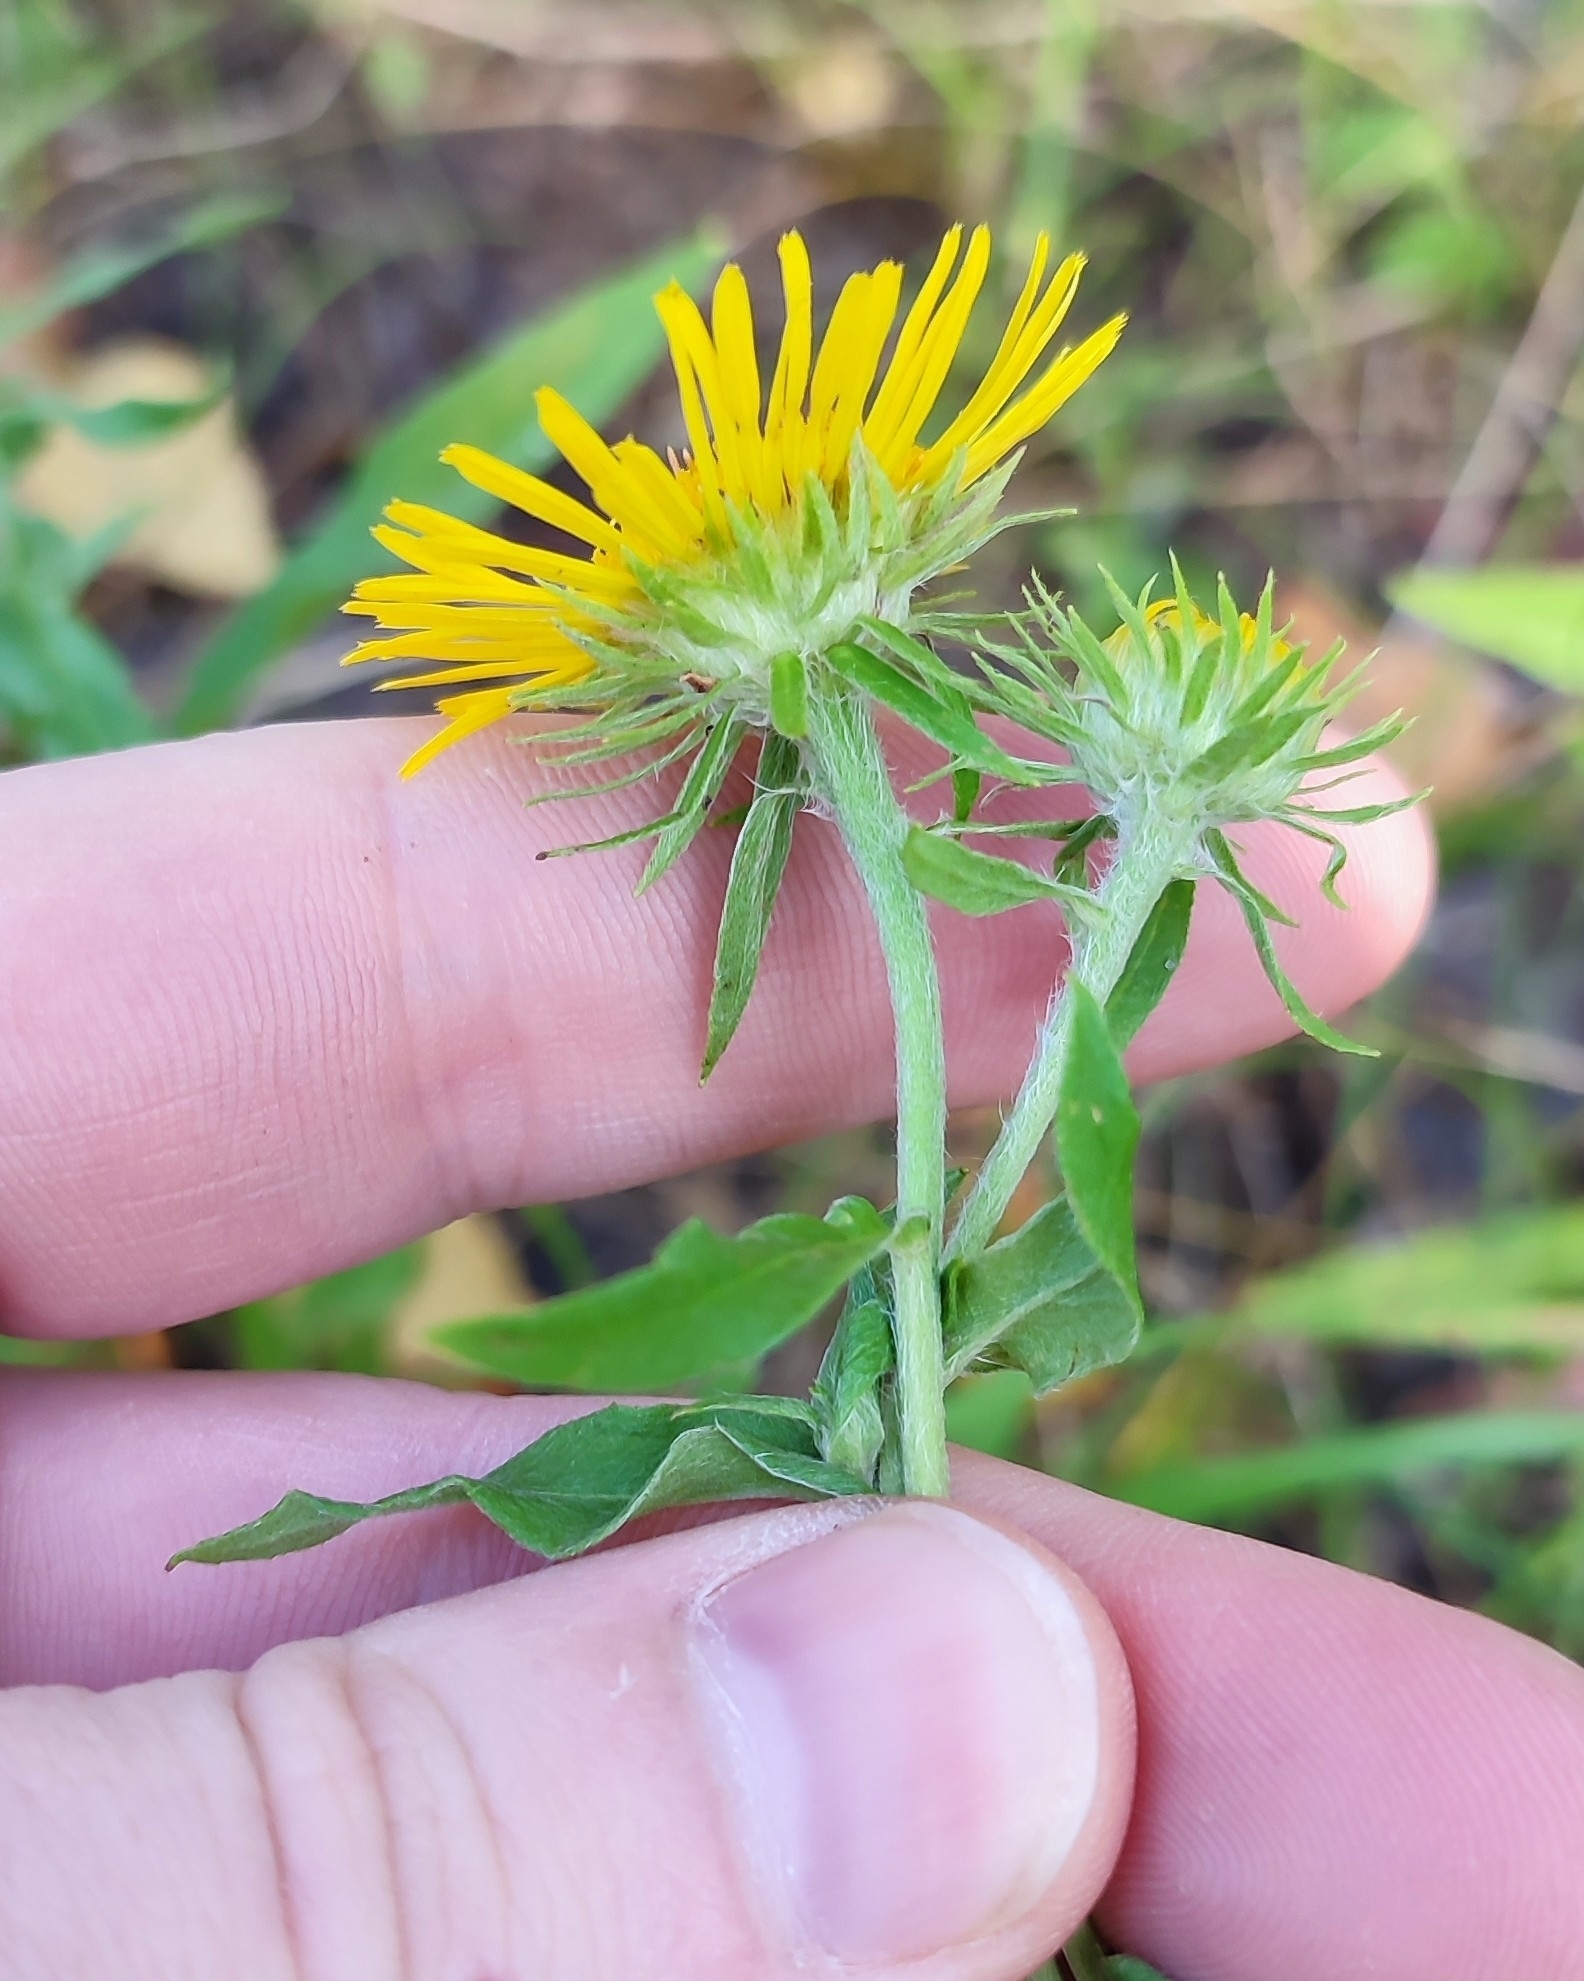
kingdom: Plantae
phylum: Tracheophyta
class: Magnoliopsida
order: Asterales
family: Asteraceae
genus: Pentanema
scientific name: Pentanema britannicum
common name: British elecampane
